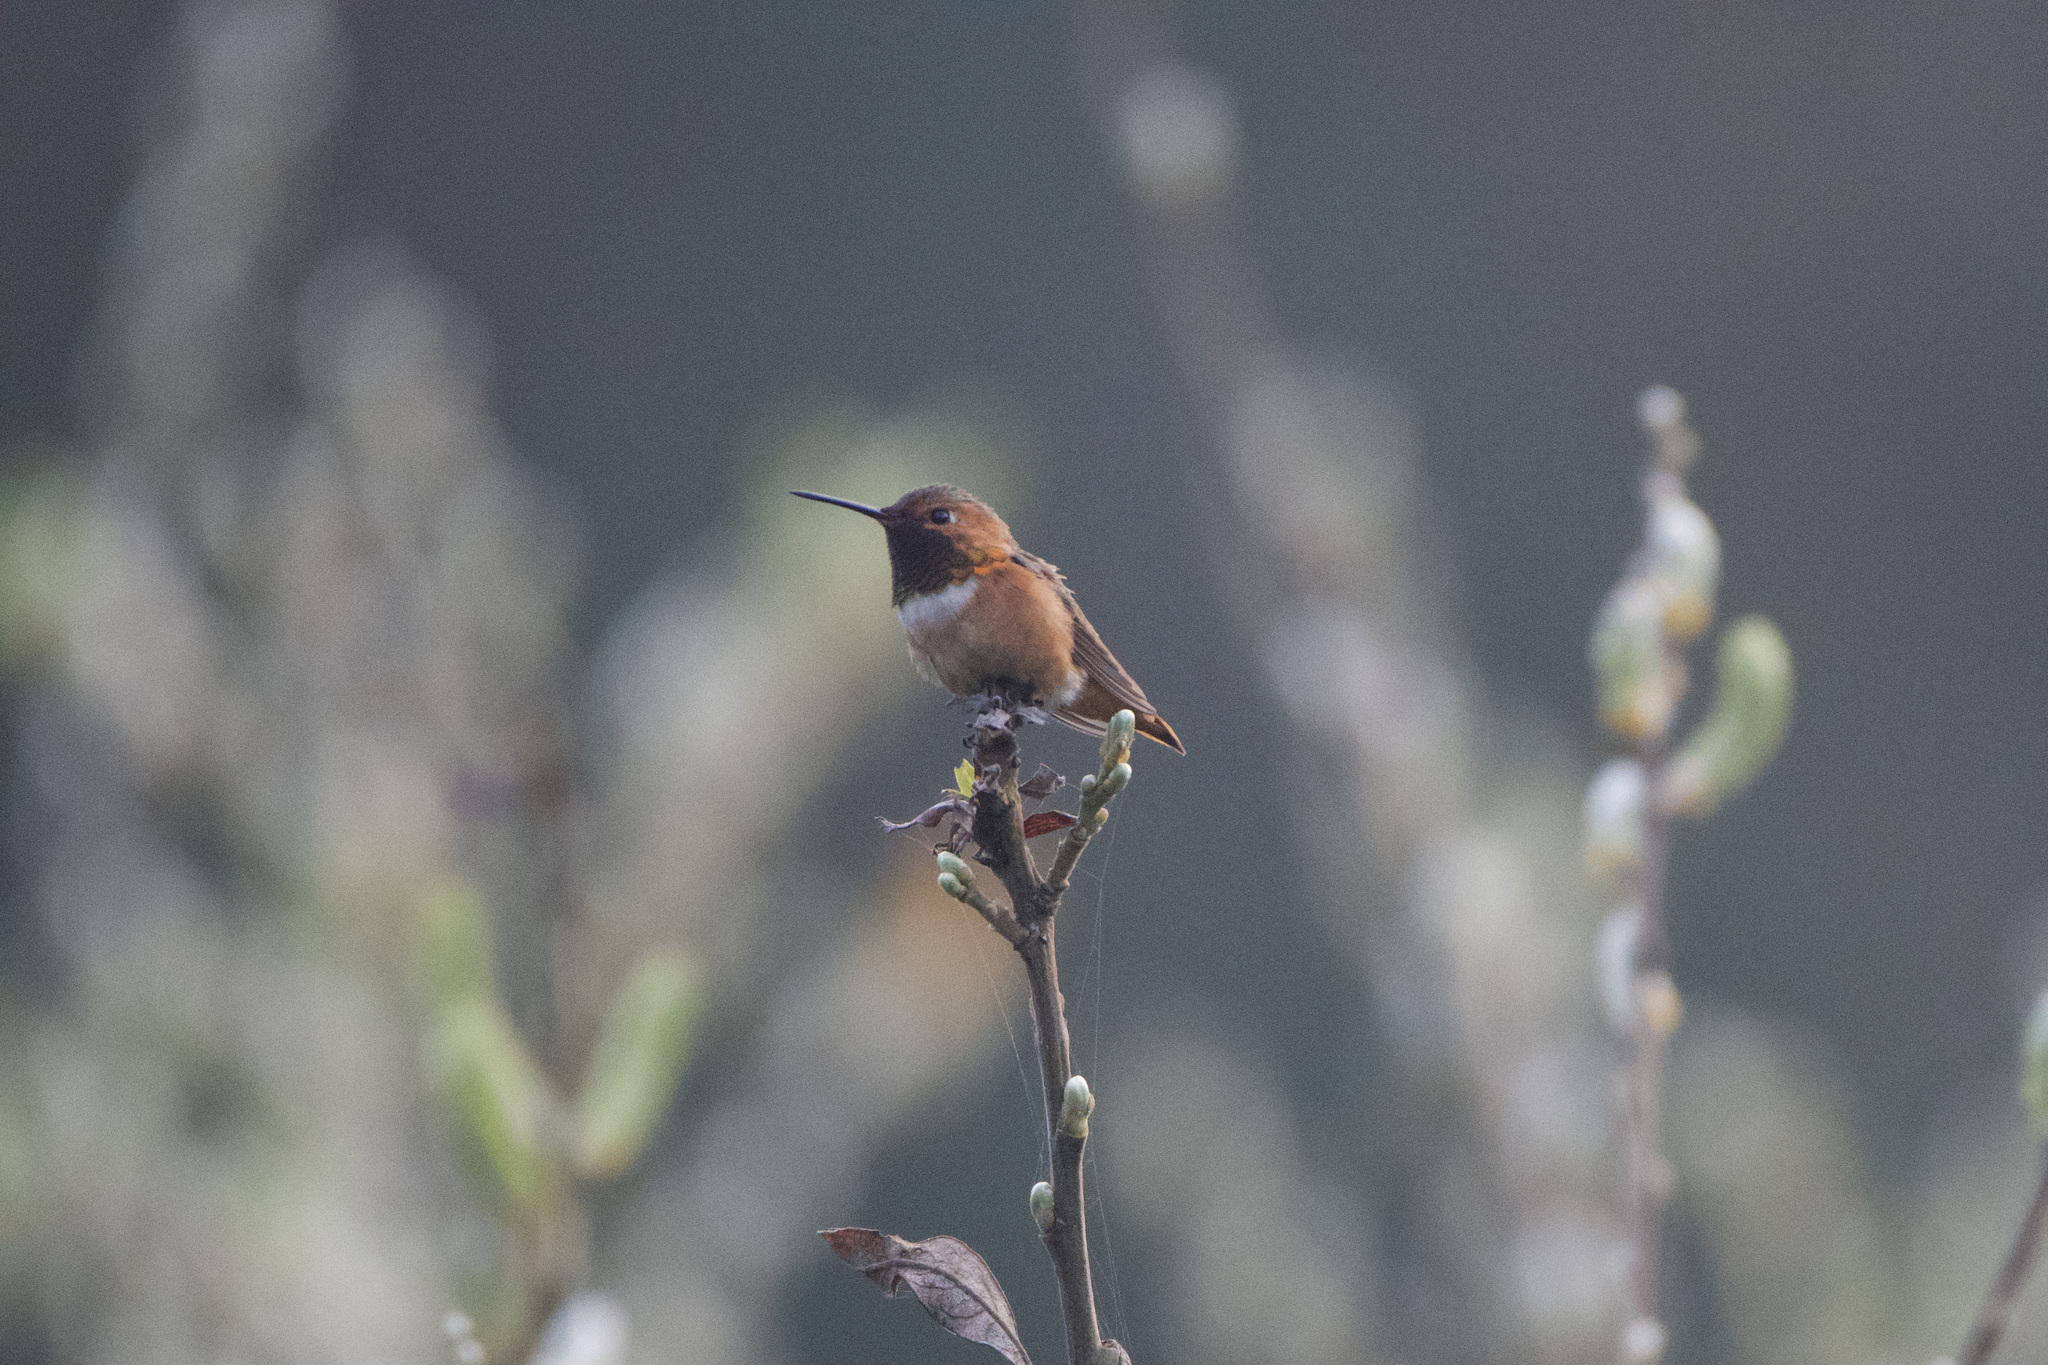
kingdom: Animalia
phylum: Chordata
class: Aves
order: Apodiformes
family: Trochilidae
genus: Selasphorus
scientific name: Selasphorus sasin
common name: Allen's hummingbird
